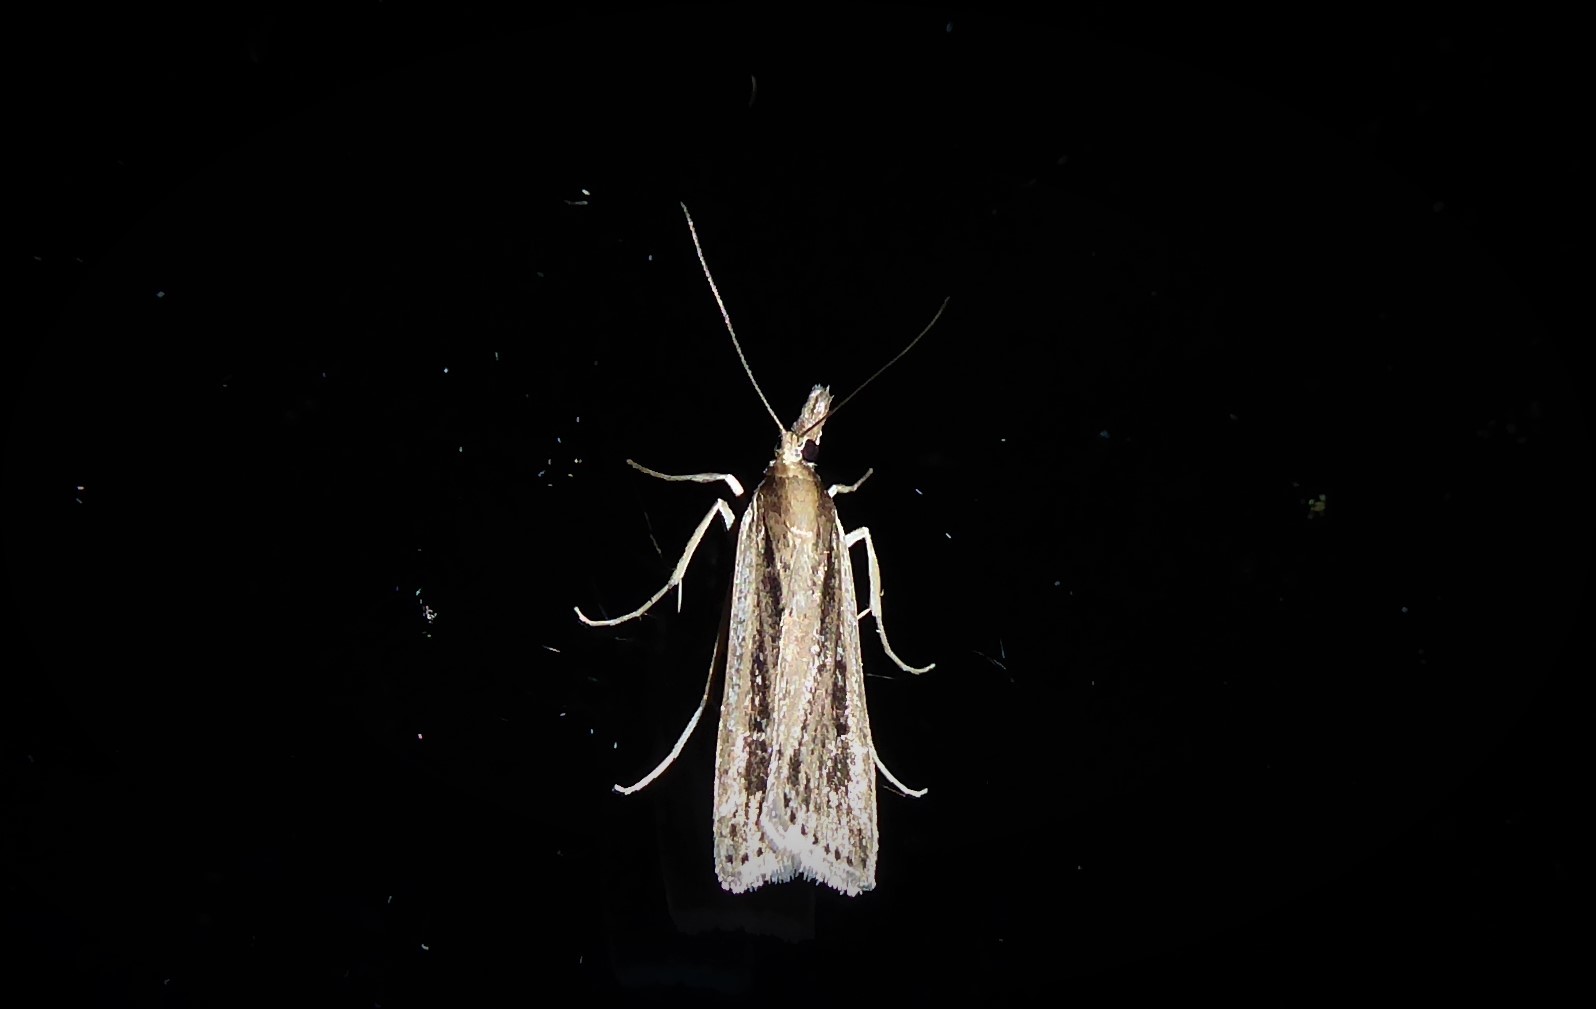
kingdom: Animalia
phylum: Arthropoda
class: Insecta
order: Lepidoptera
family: Crambidae
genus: Eudonia
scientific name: Eudonia sabulosella
